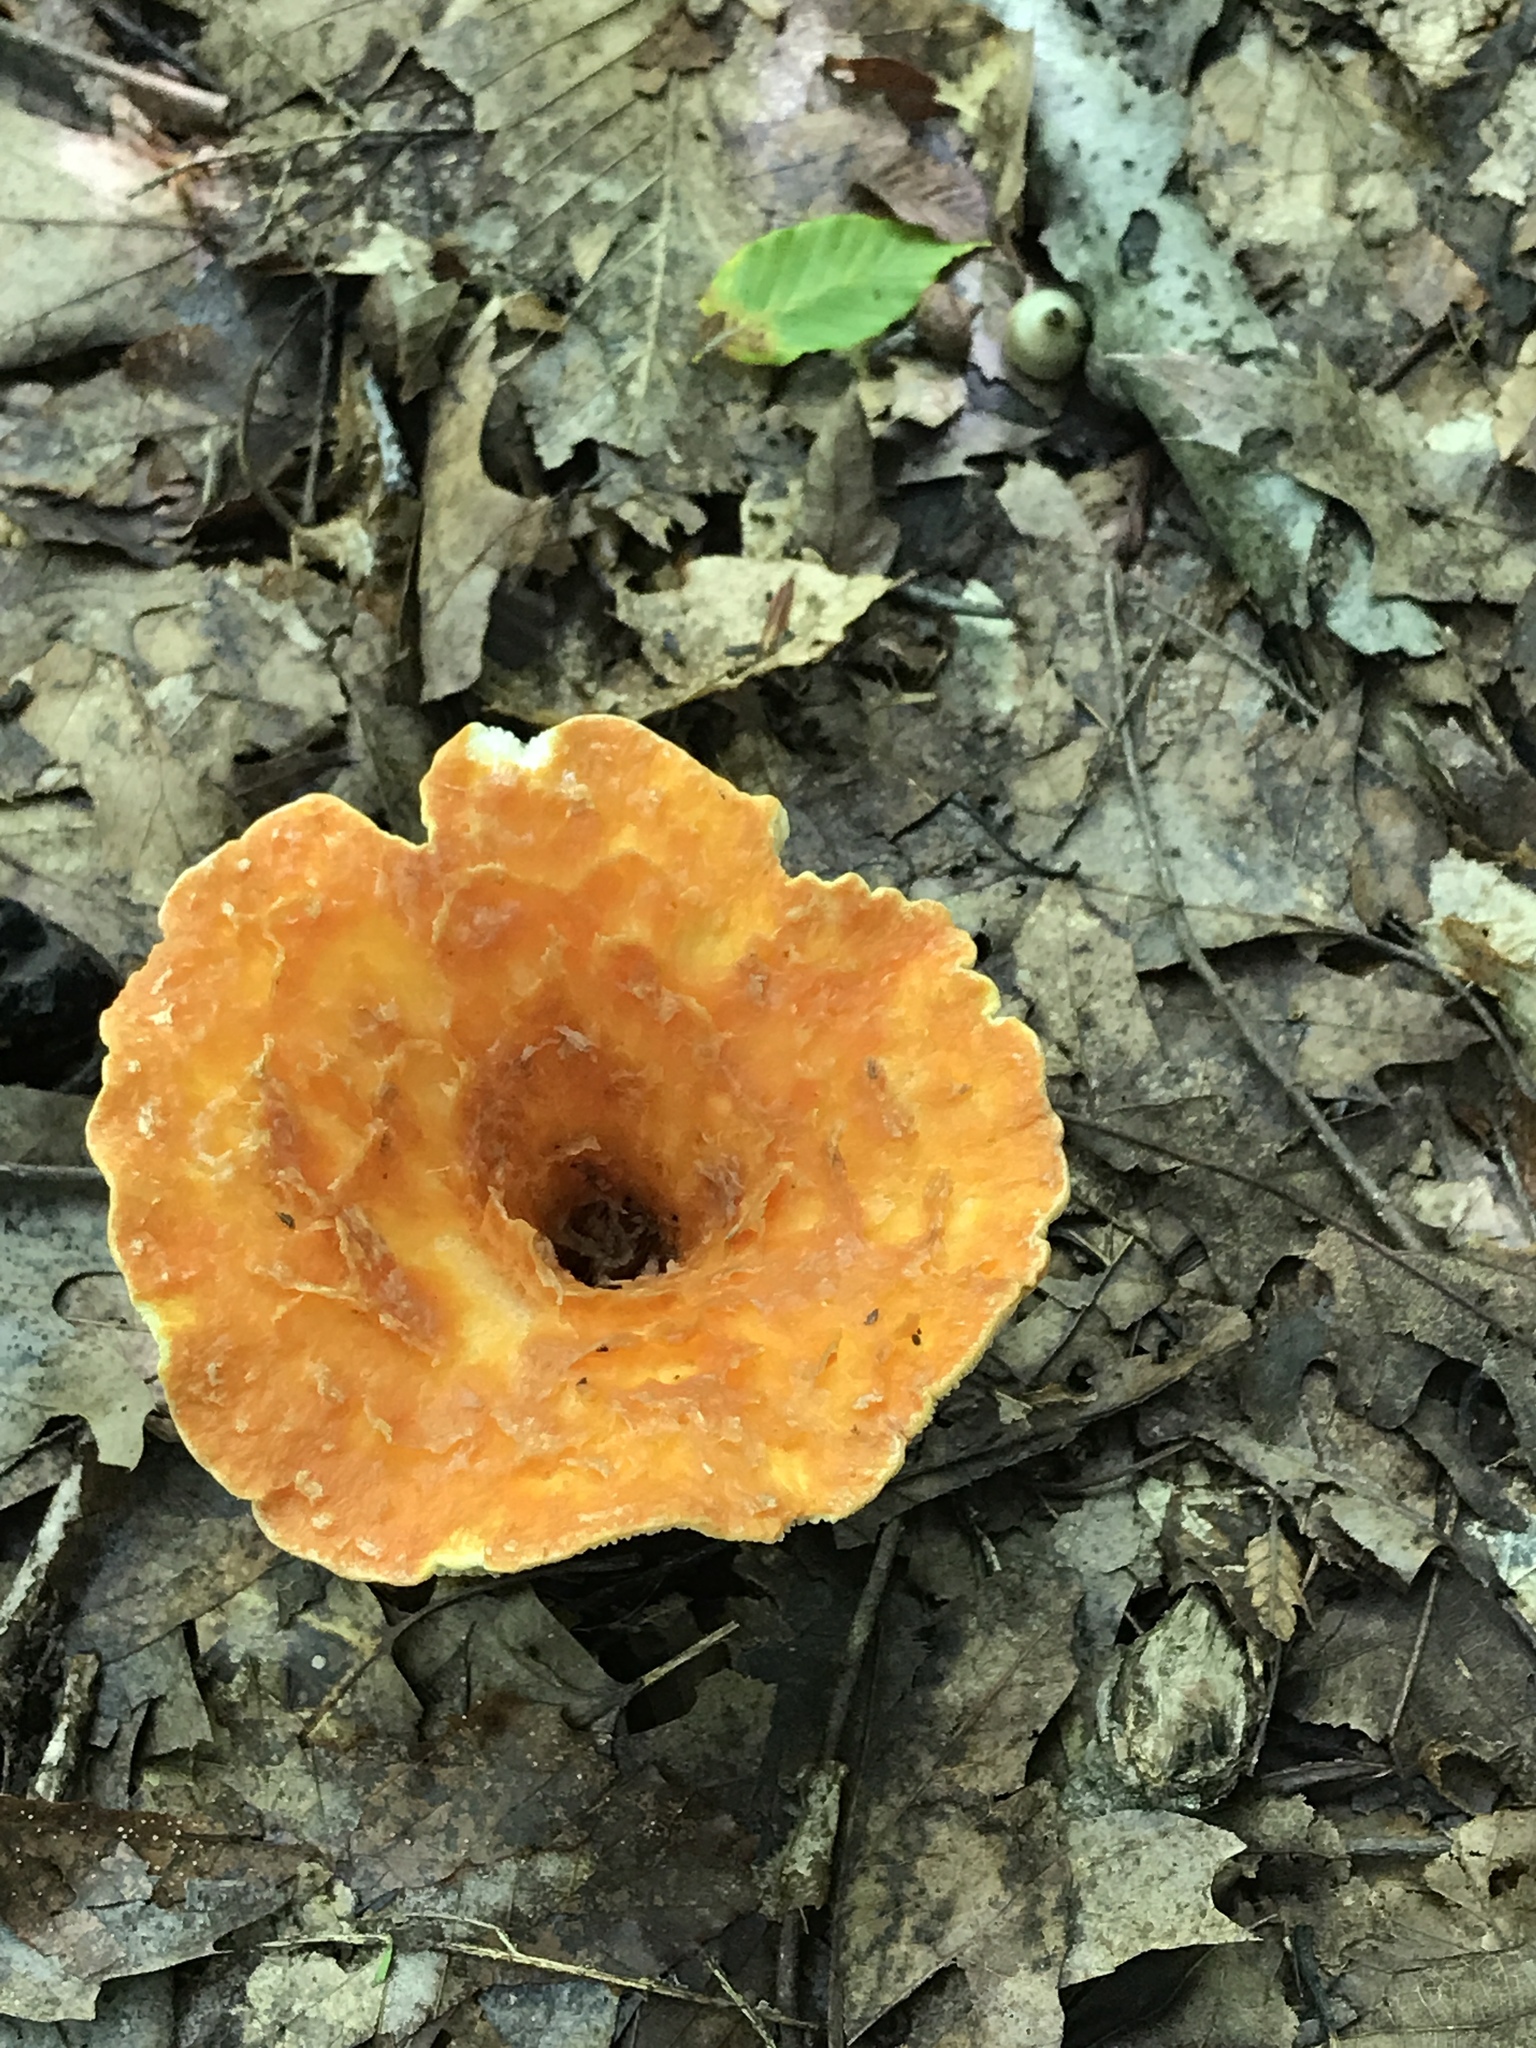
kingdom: Fungi
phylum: Basidiomycota
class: Agaricomycetes
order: Gomphales
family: Gomphaceae
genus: Turbinellus
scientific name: Turbinellus floccosus
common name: Scaly chanterelle
